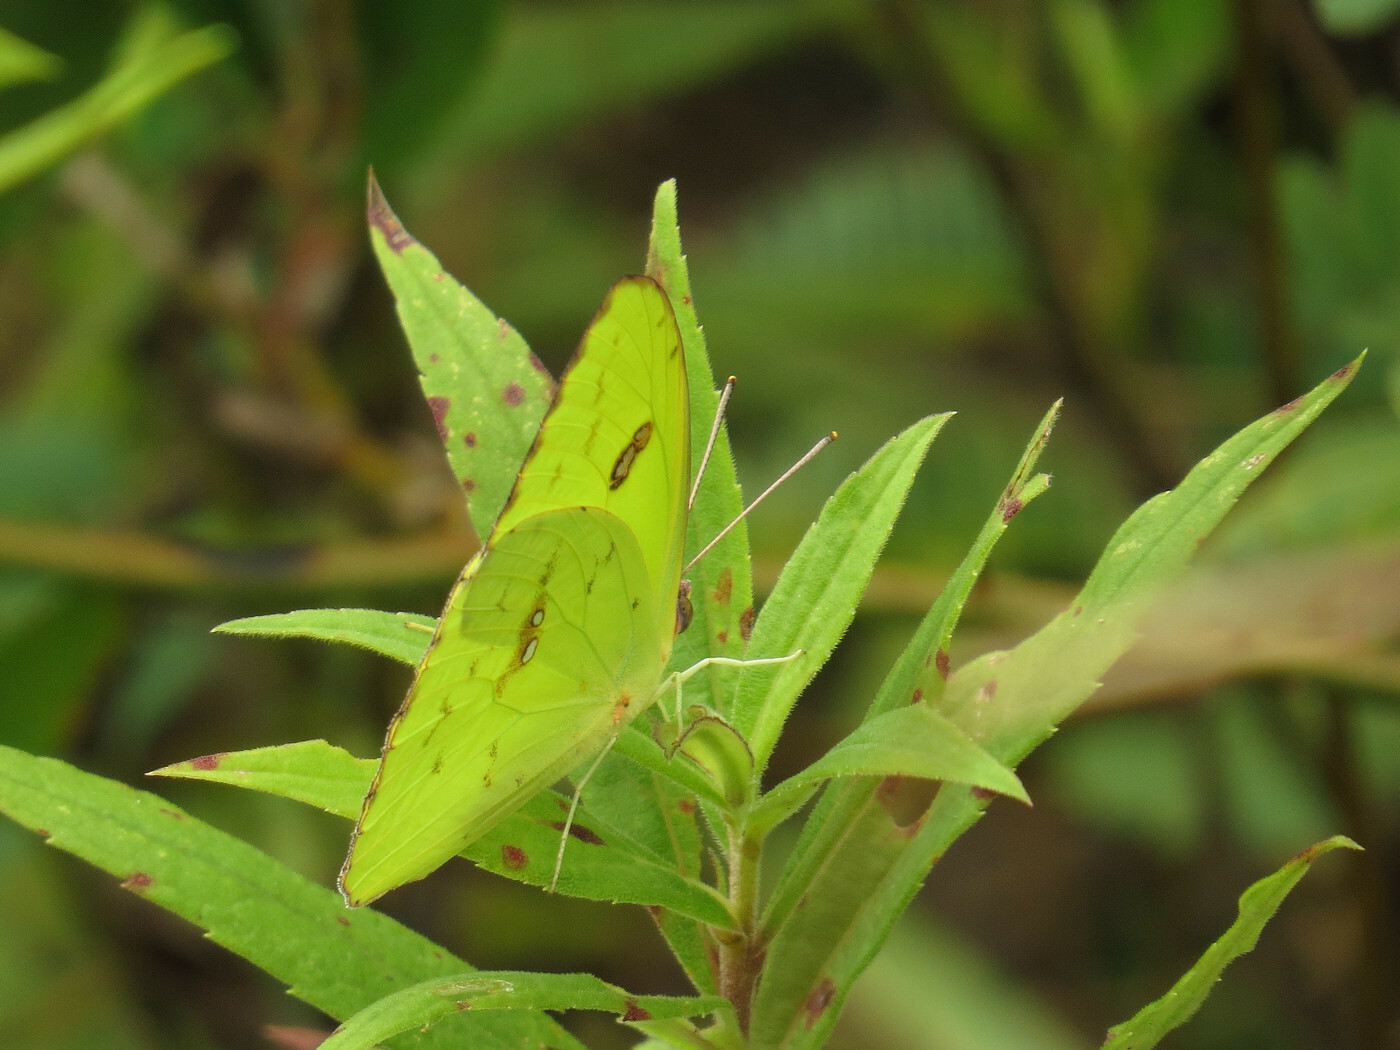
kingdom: Animalia
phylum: Arthropoda
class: Insecta
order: Lepidoptera
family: Pieridae
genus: Phoebis
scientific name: Phoebis sennae
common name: Cloudless sulphur
